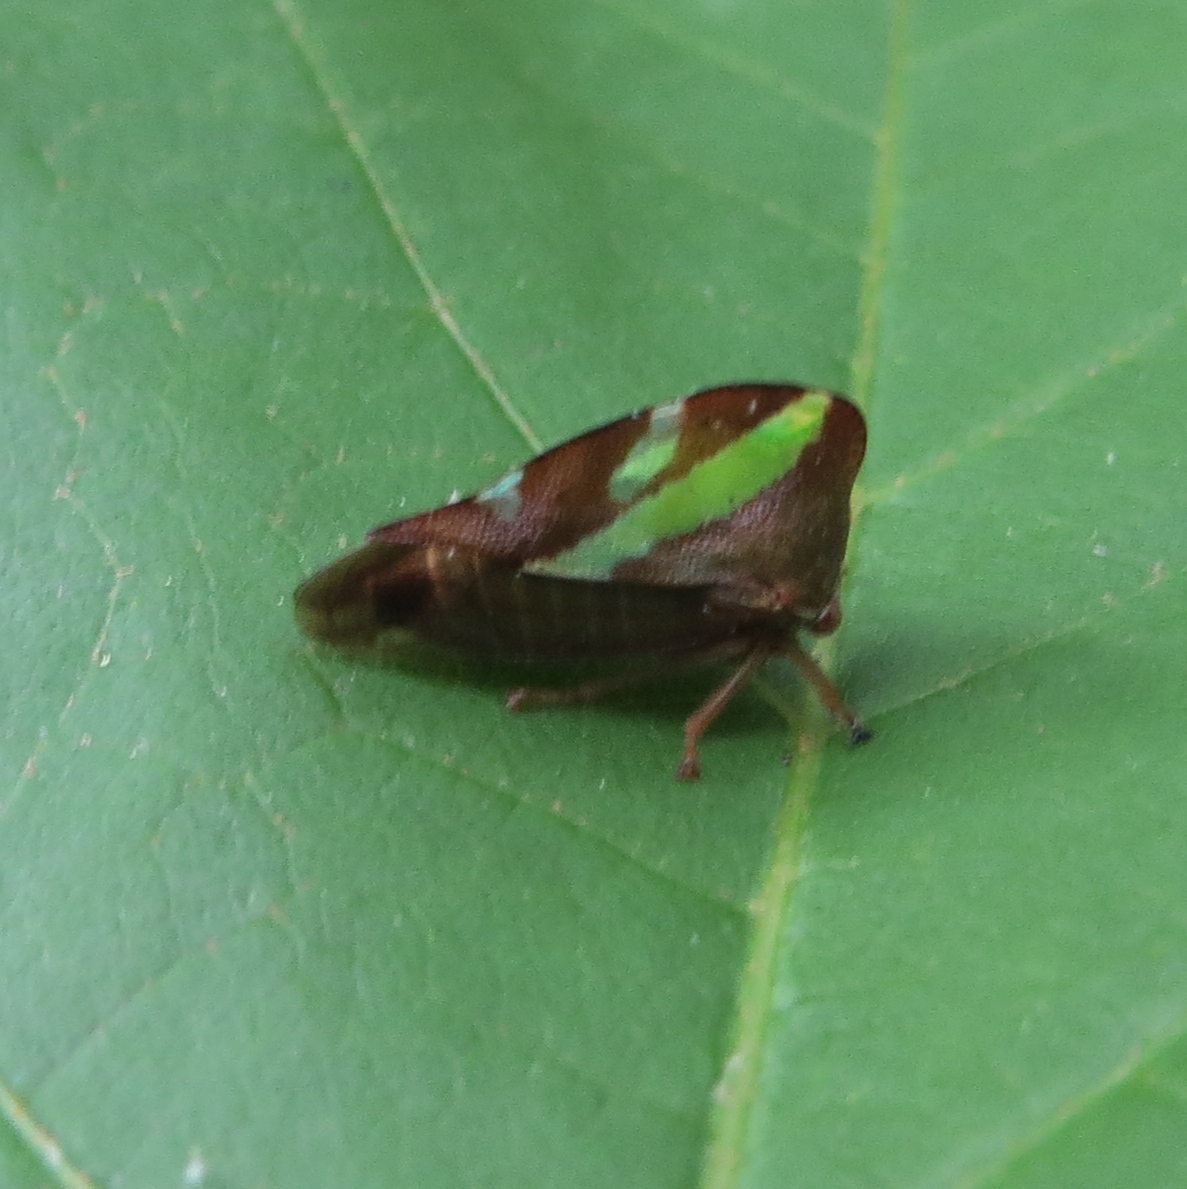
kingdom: Animalia
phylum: Arthropoda
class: Insecta
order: Hemiptera
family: Membracidae
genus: Smilia
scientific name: Smilia camelus
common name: Camel treehopper
